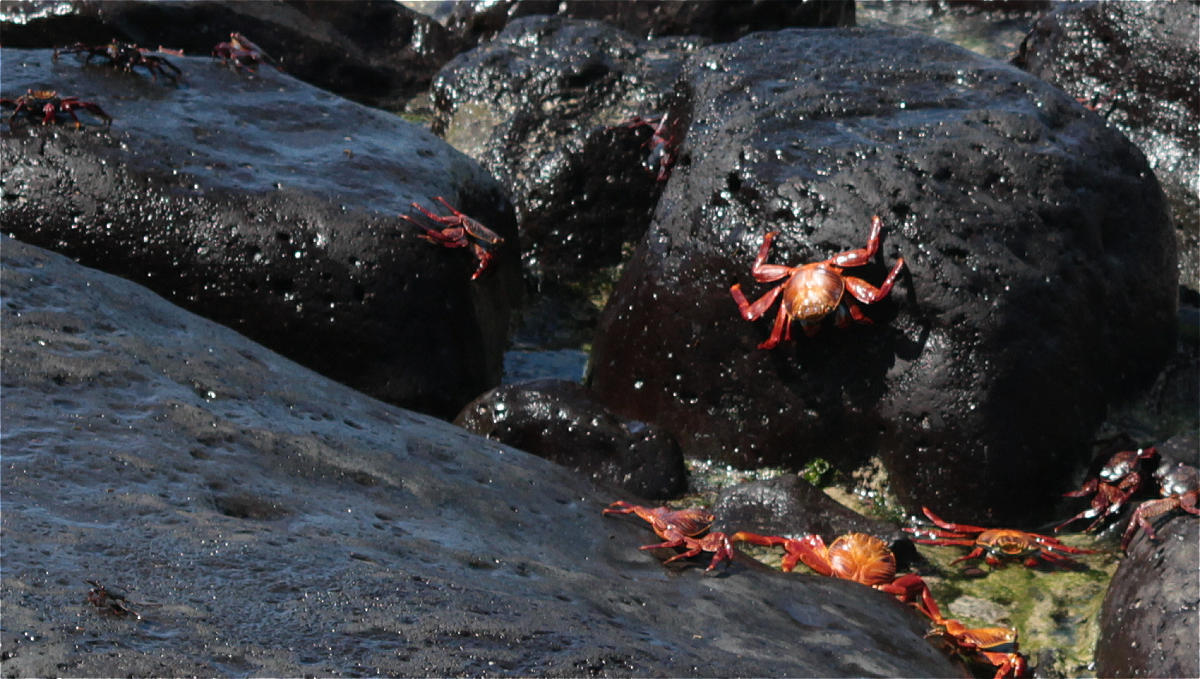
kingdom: Animalia
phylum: Arthropoda
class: Malacostraca
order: Decapoda
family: Grapsidae
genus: Grapsus
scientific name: Grapsus grapsus
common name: Sally lightfoot
